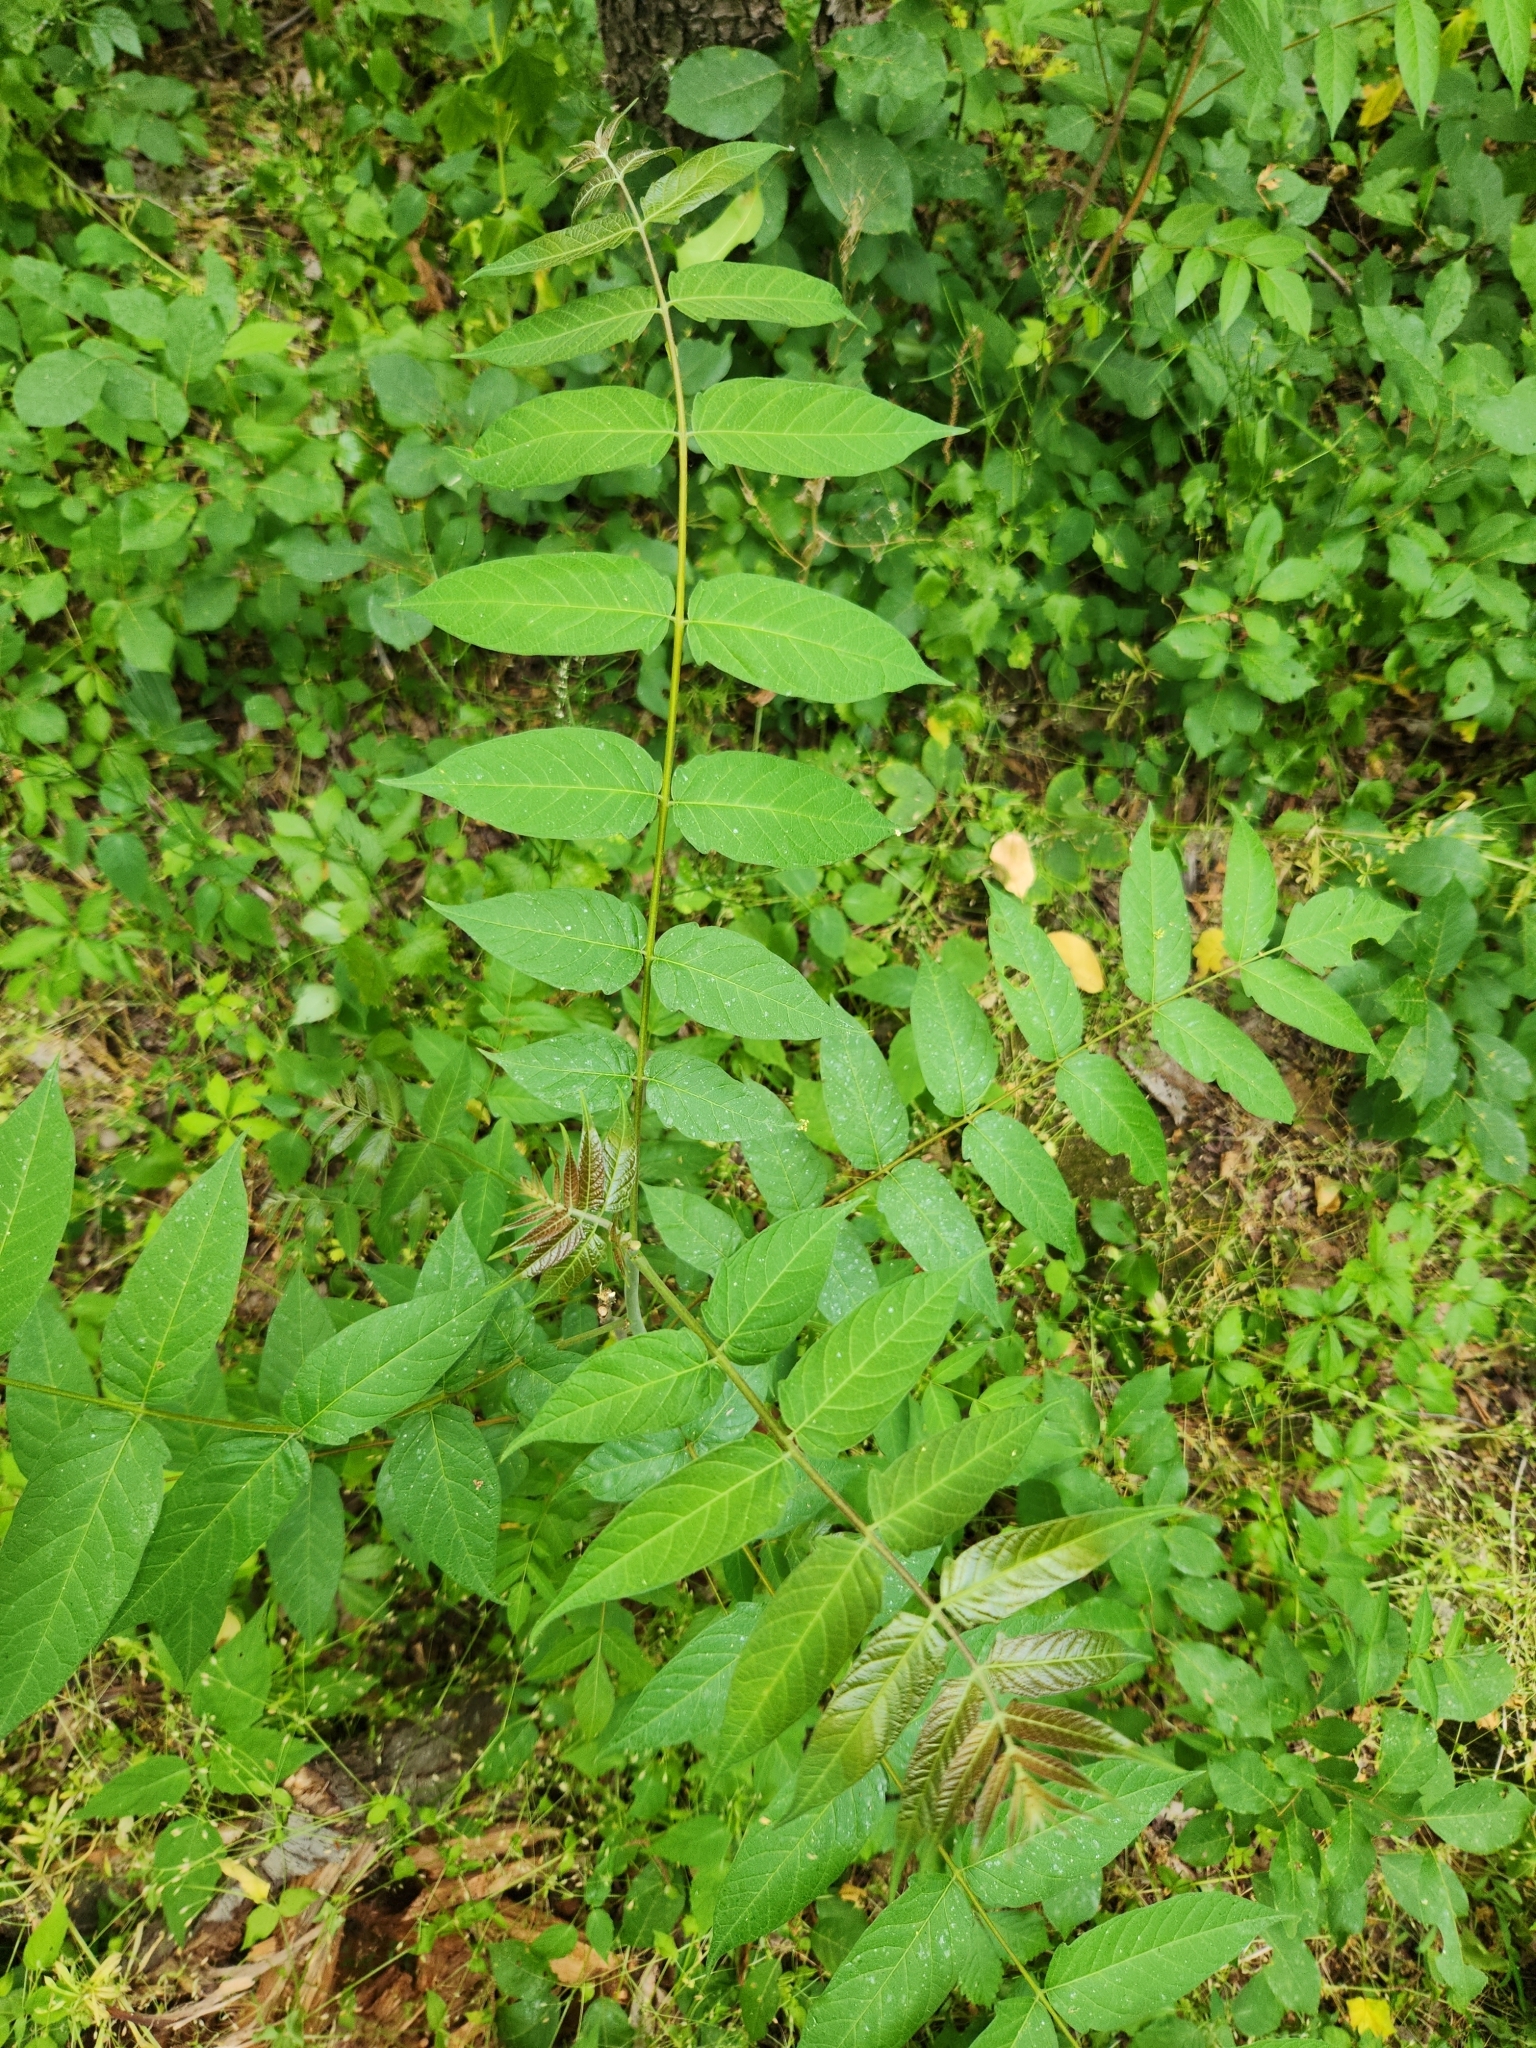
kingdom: Plantae
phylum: Tracheophyta
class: Magnoliopsida
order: Sapindales
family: Simaroubaceae
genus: Ailanthus
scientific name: Ailanthus altissima
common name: Tree-of-heaven
